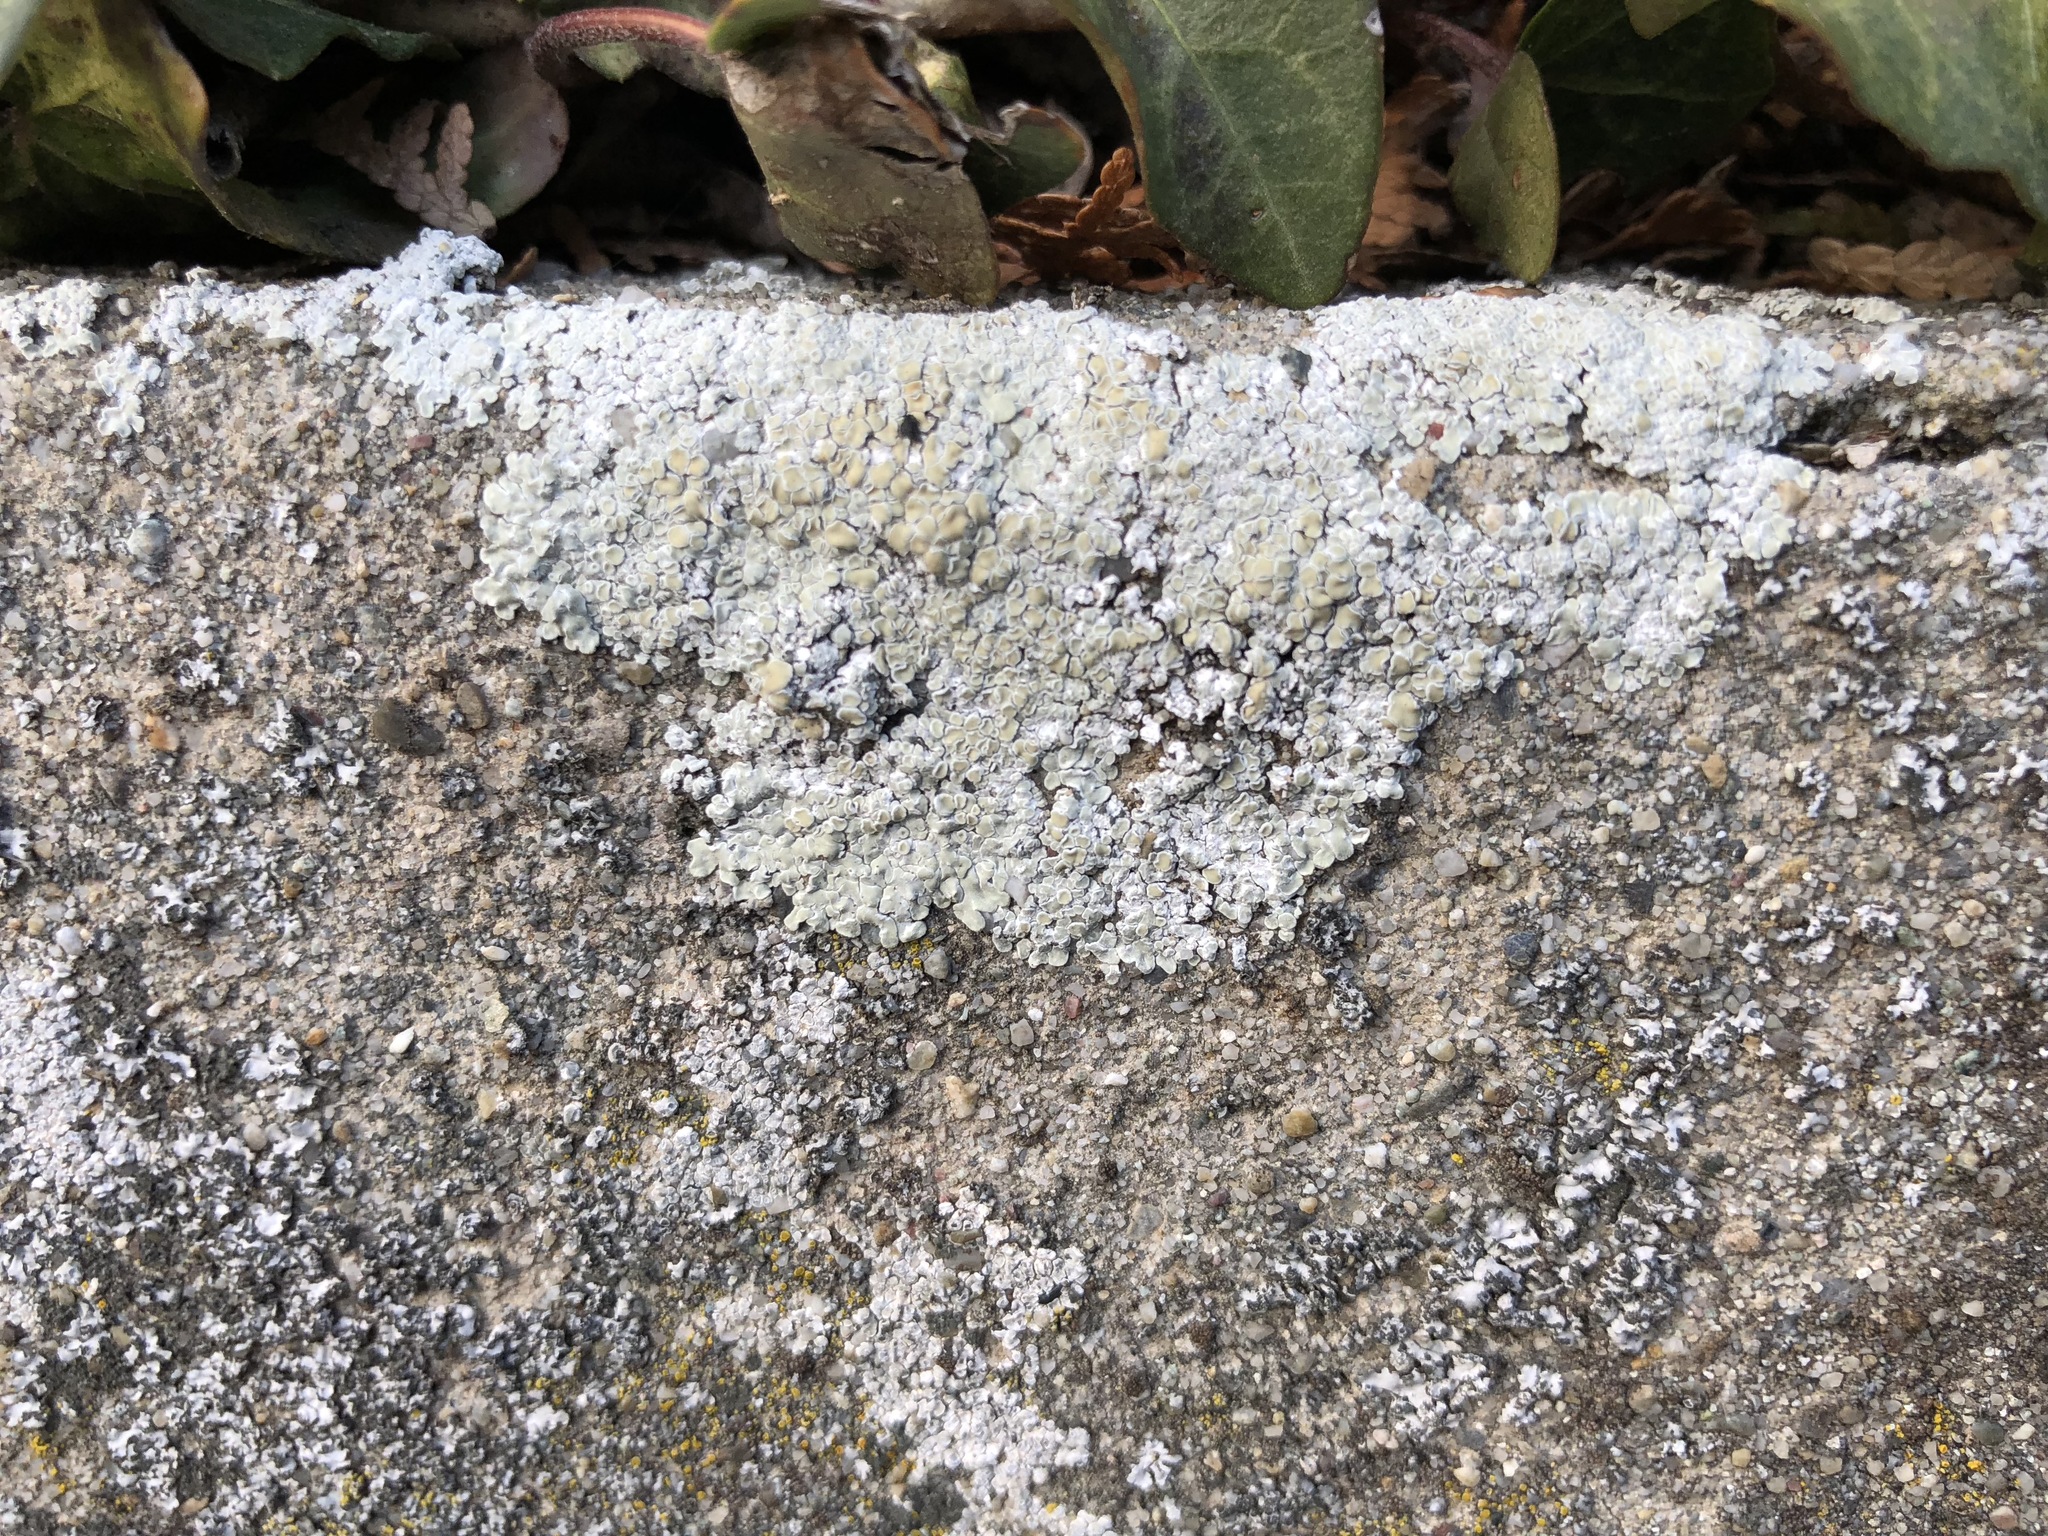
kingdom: Fungi
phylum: Ascomycota
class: Lecanoromycetes
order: Lecanorales
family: Lecanoraceae
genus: Protoparmeliopsis
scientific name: Protoparmeliopsis muralis
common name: Stonewall rim lichen
